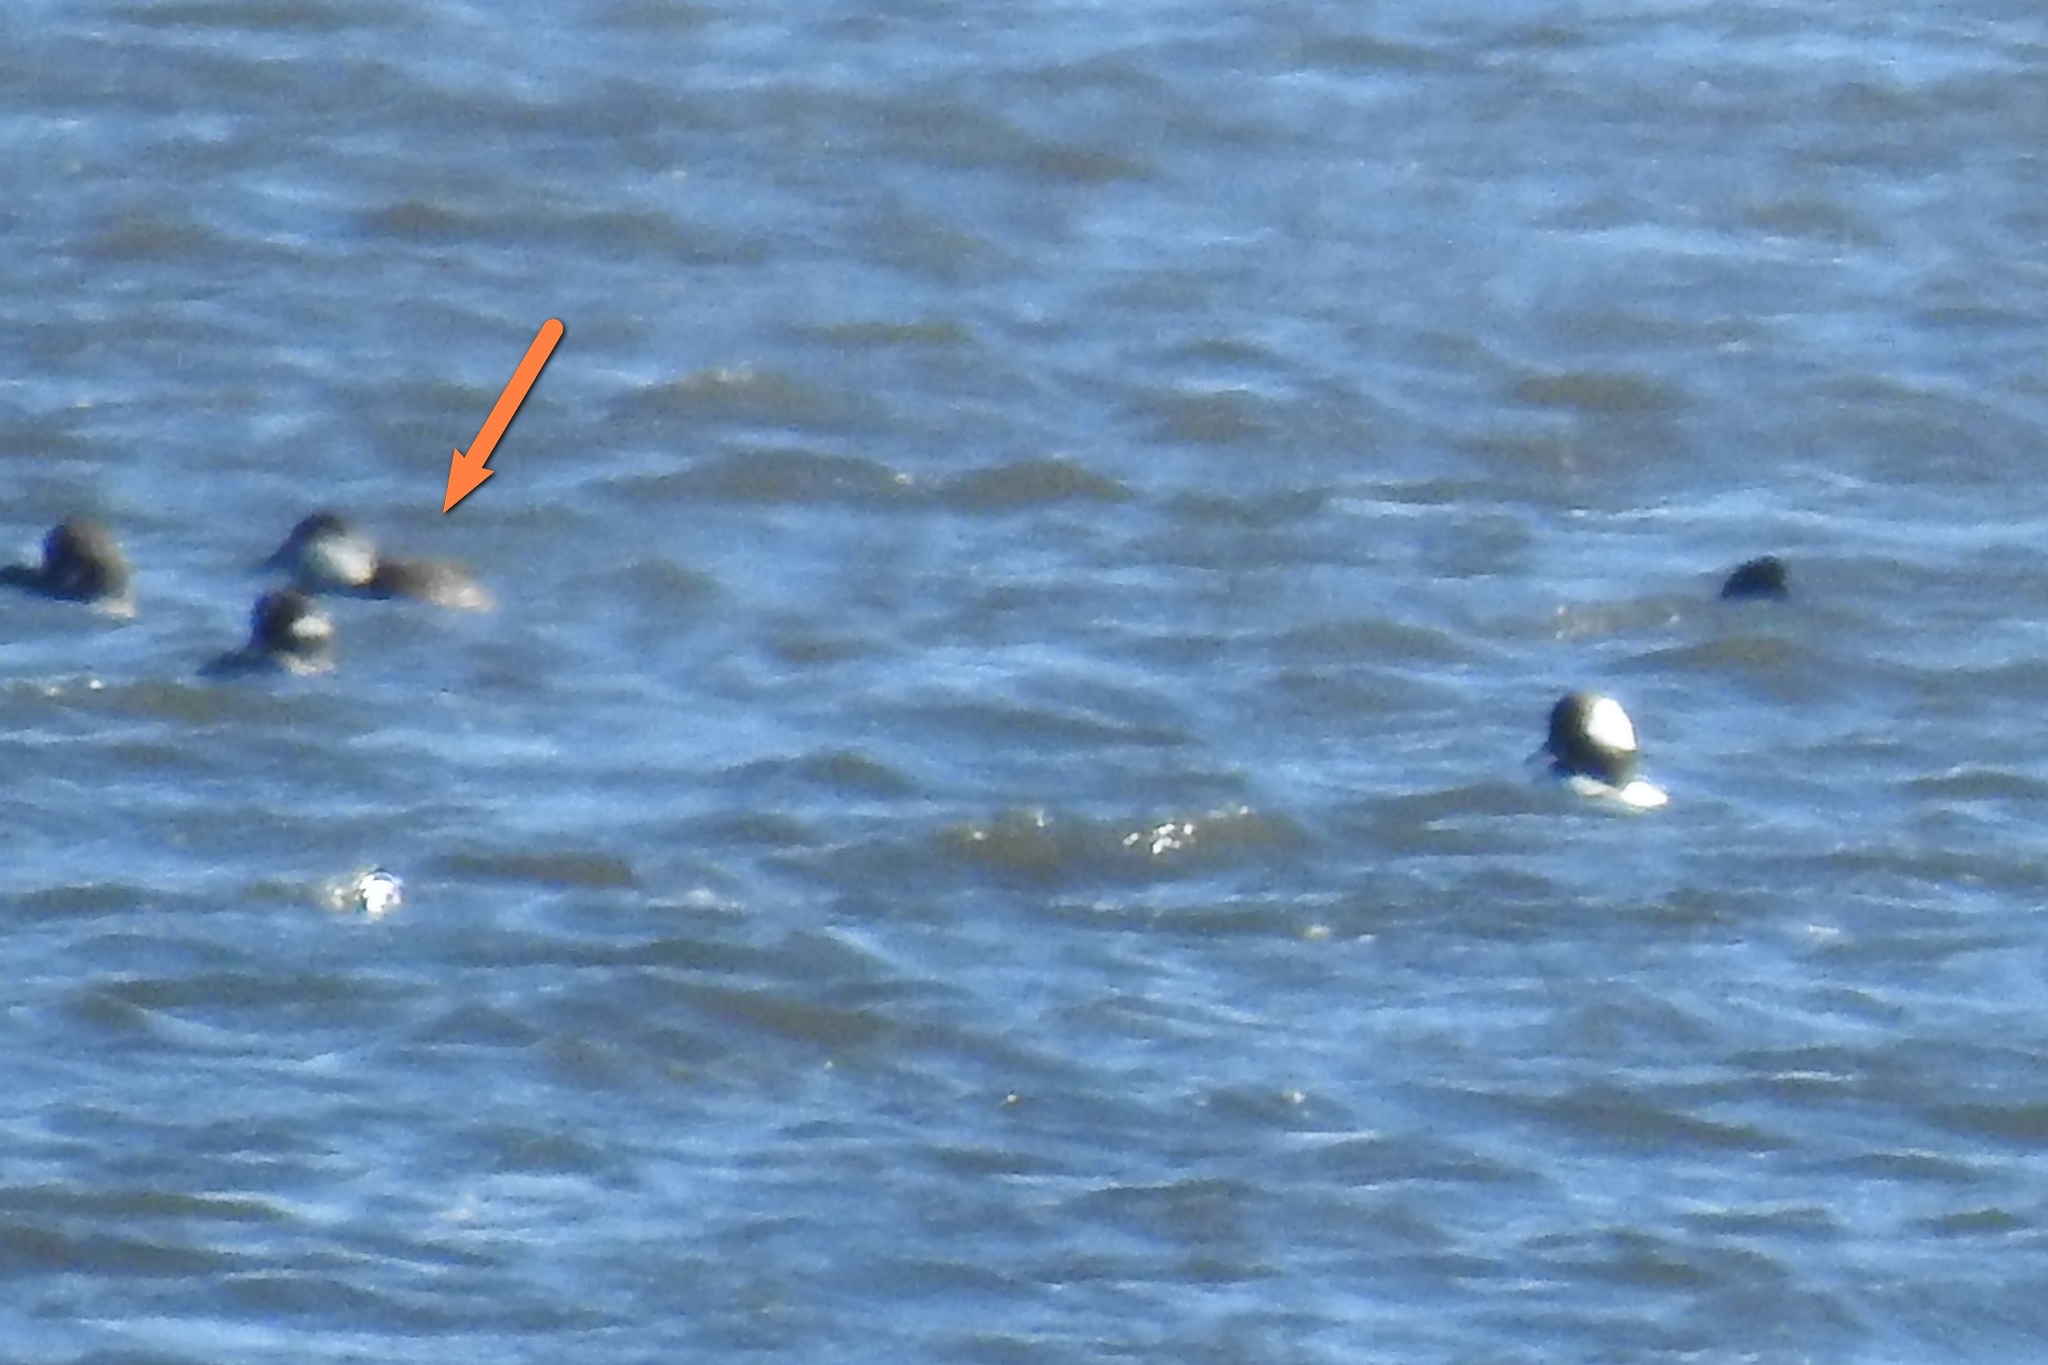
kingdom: Animalia
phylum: Chordata
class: Aves
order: Anseriformes
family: Anatidae
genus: Oxyura
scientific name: Oxyura jamaicensis
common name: Ruddy duck
